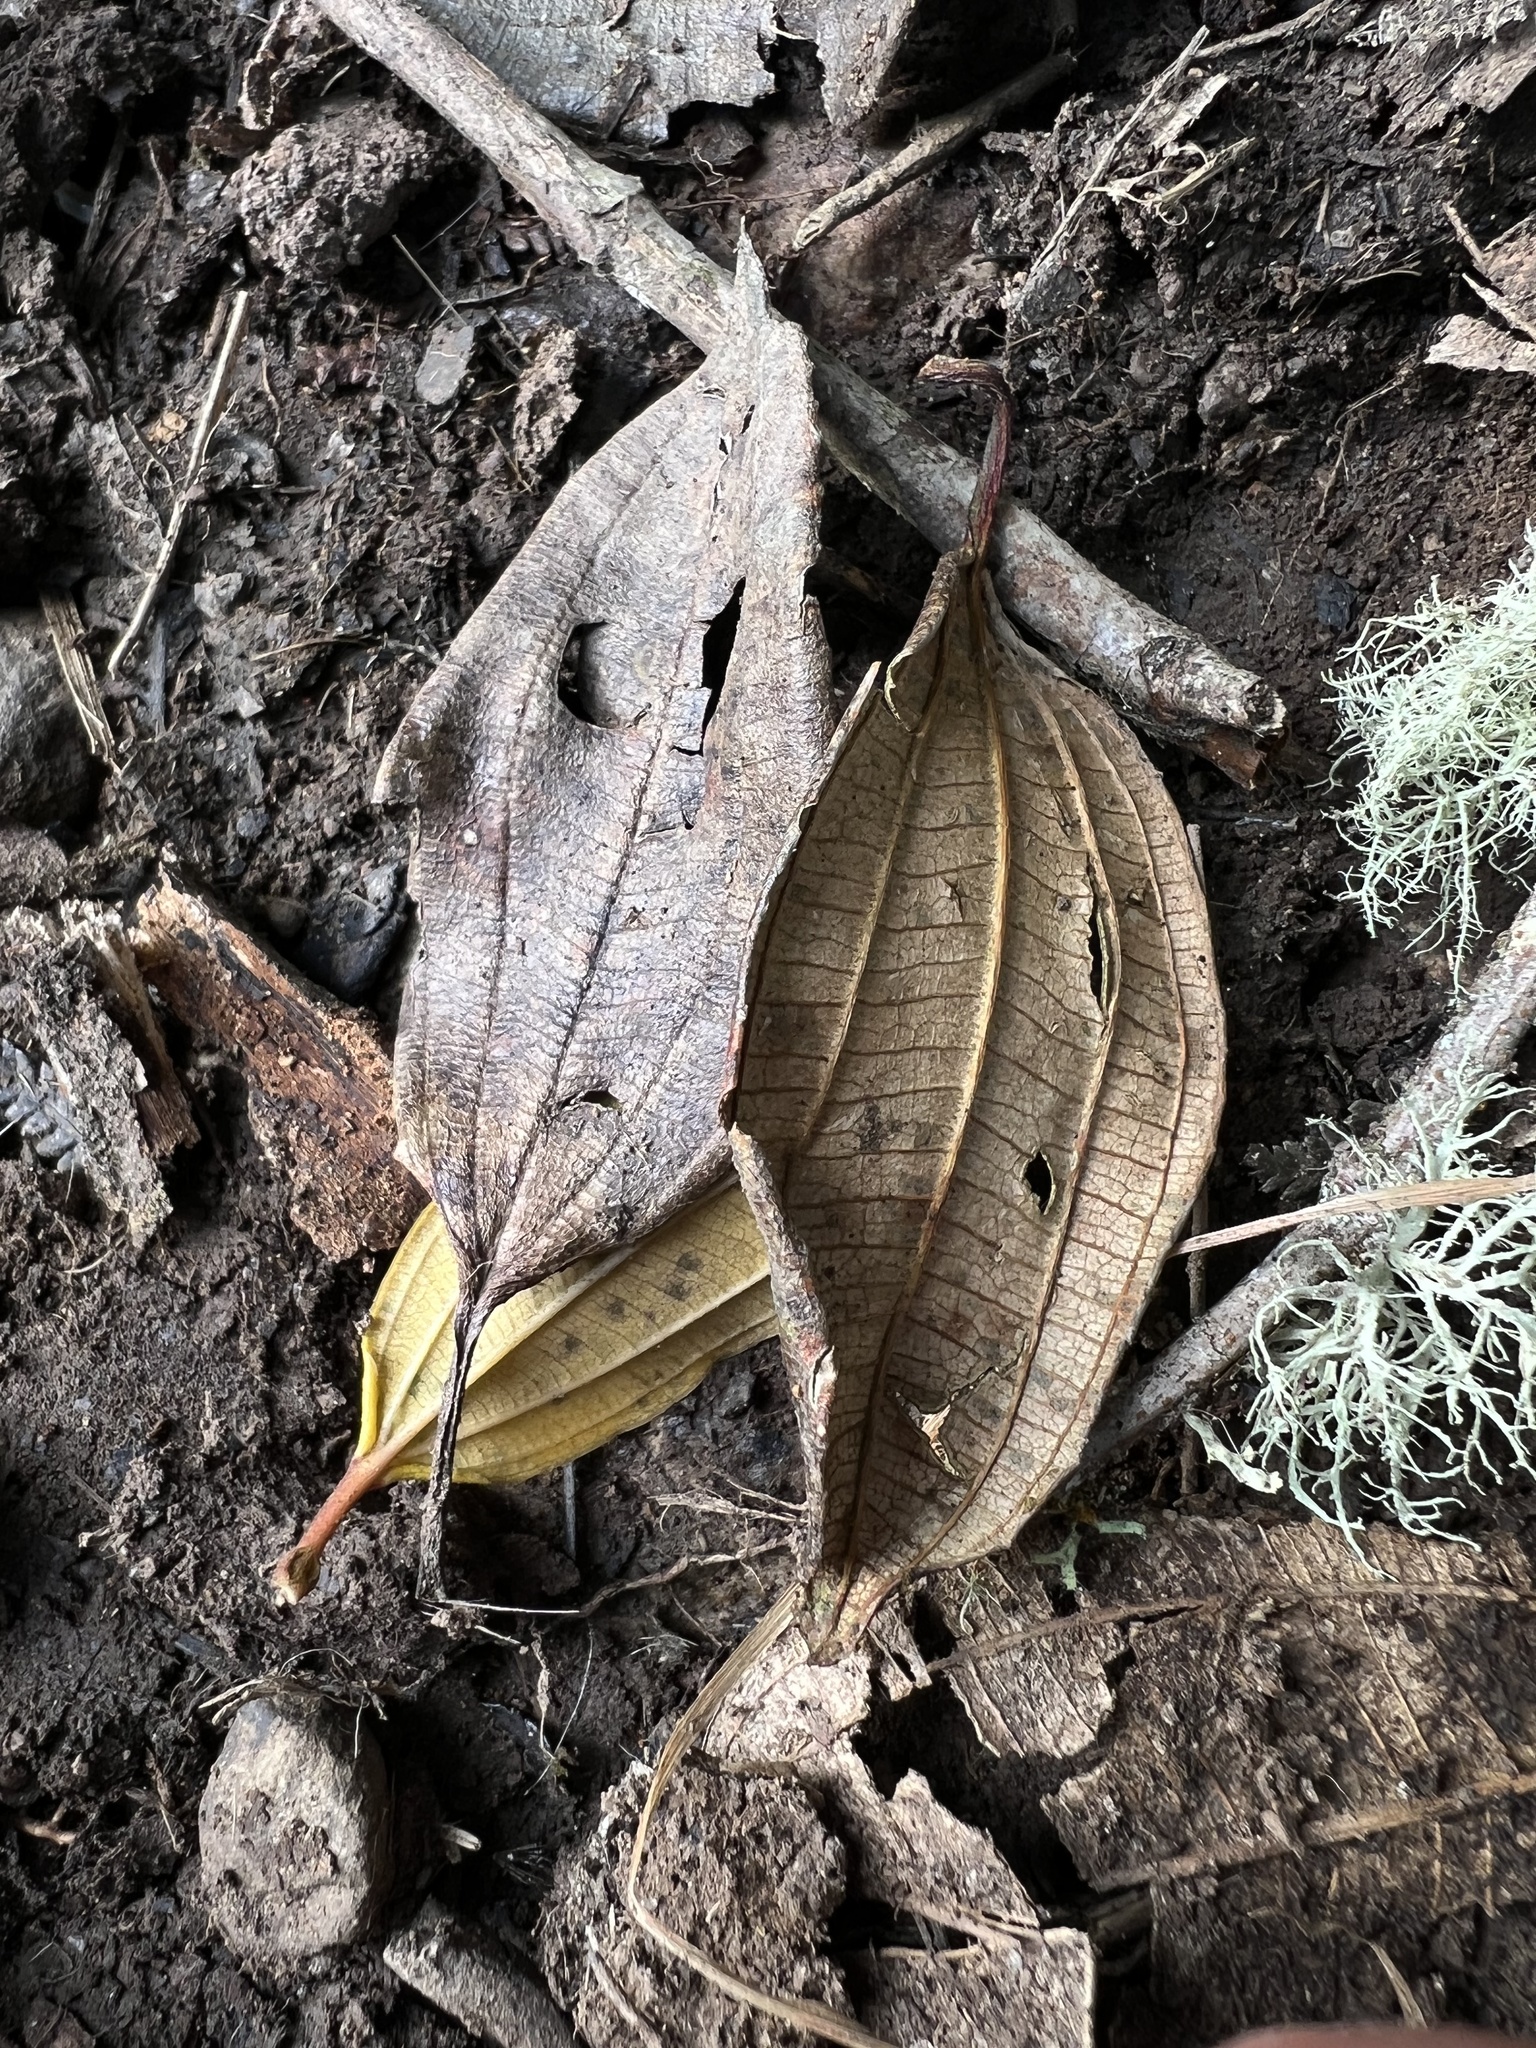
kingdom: Plantae
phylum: Tracheophyta
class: Magnoliopsida
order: Myrtales
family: Melastomataceae
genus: Axinaea
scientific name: Axinaea macrophylla
